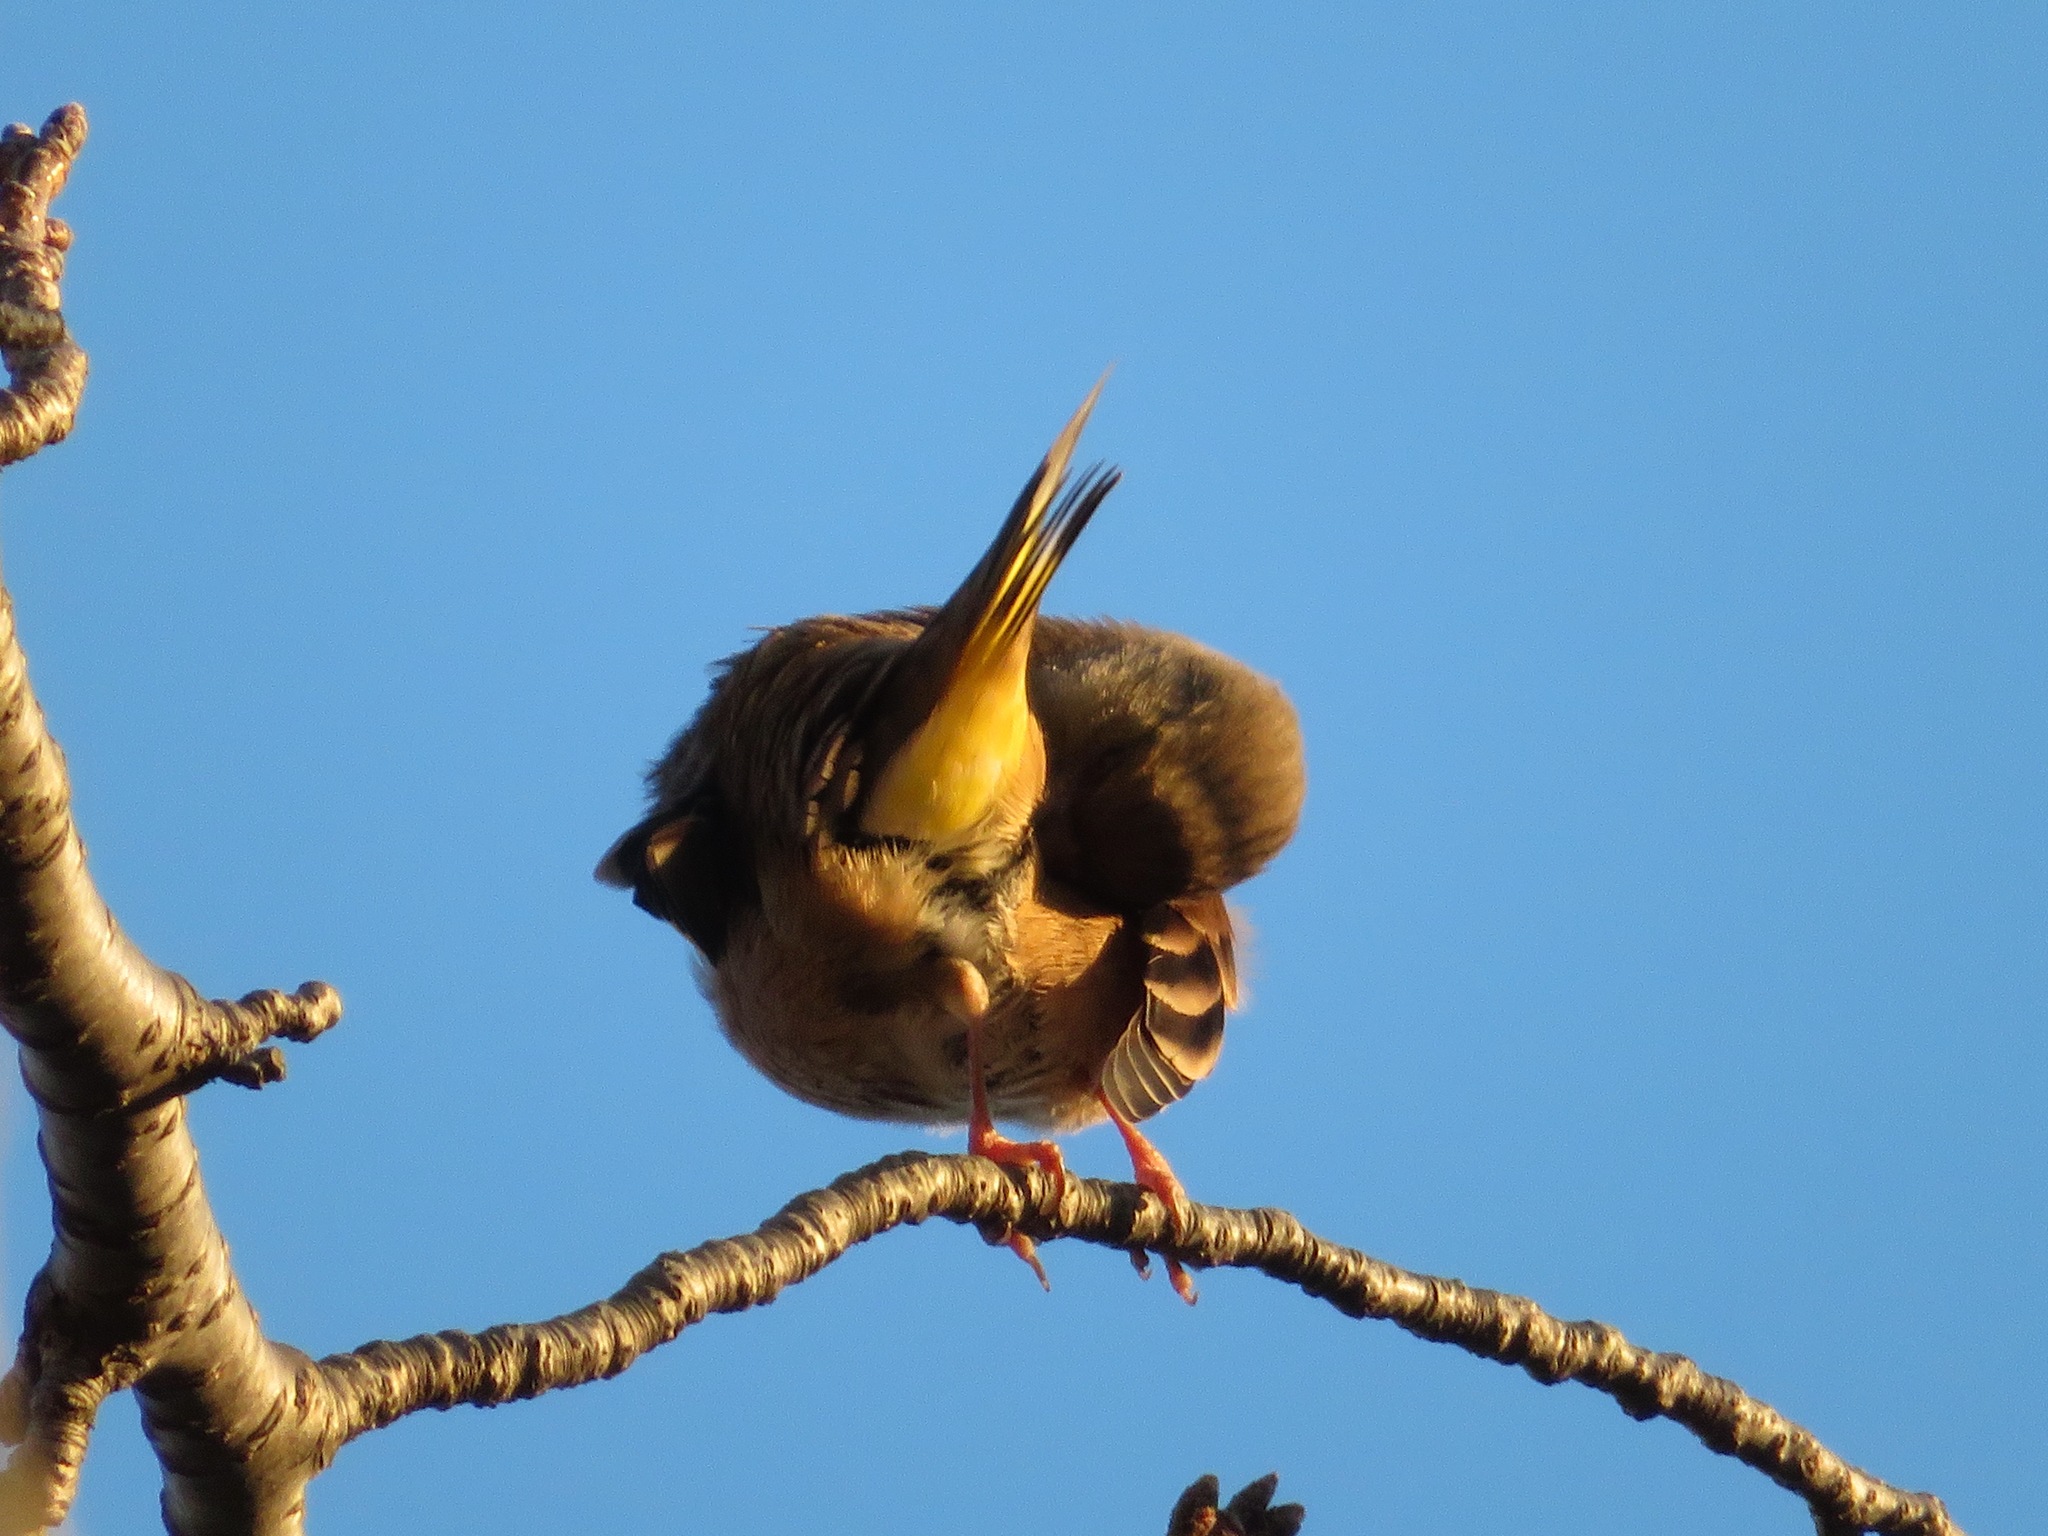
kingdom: Plantae
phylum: Tracheophyta
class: Liliopsida
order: Poales
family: Poaceae
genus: Chloris
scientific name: Chloris sinica
